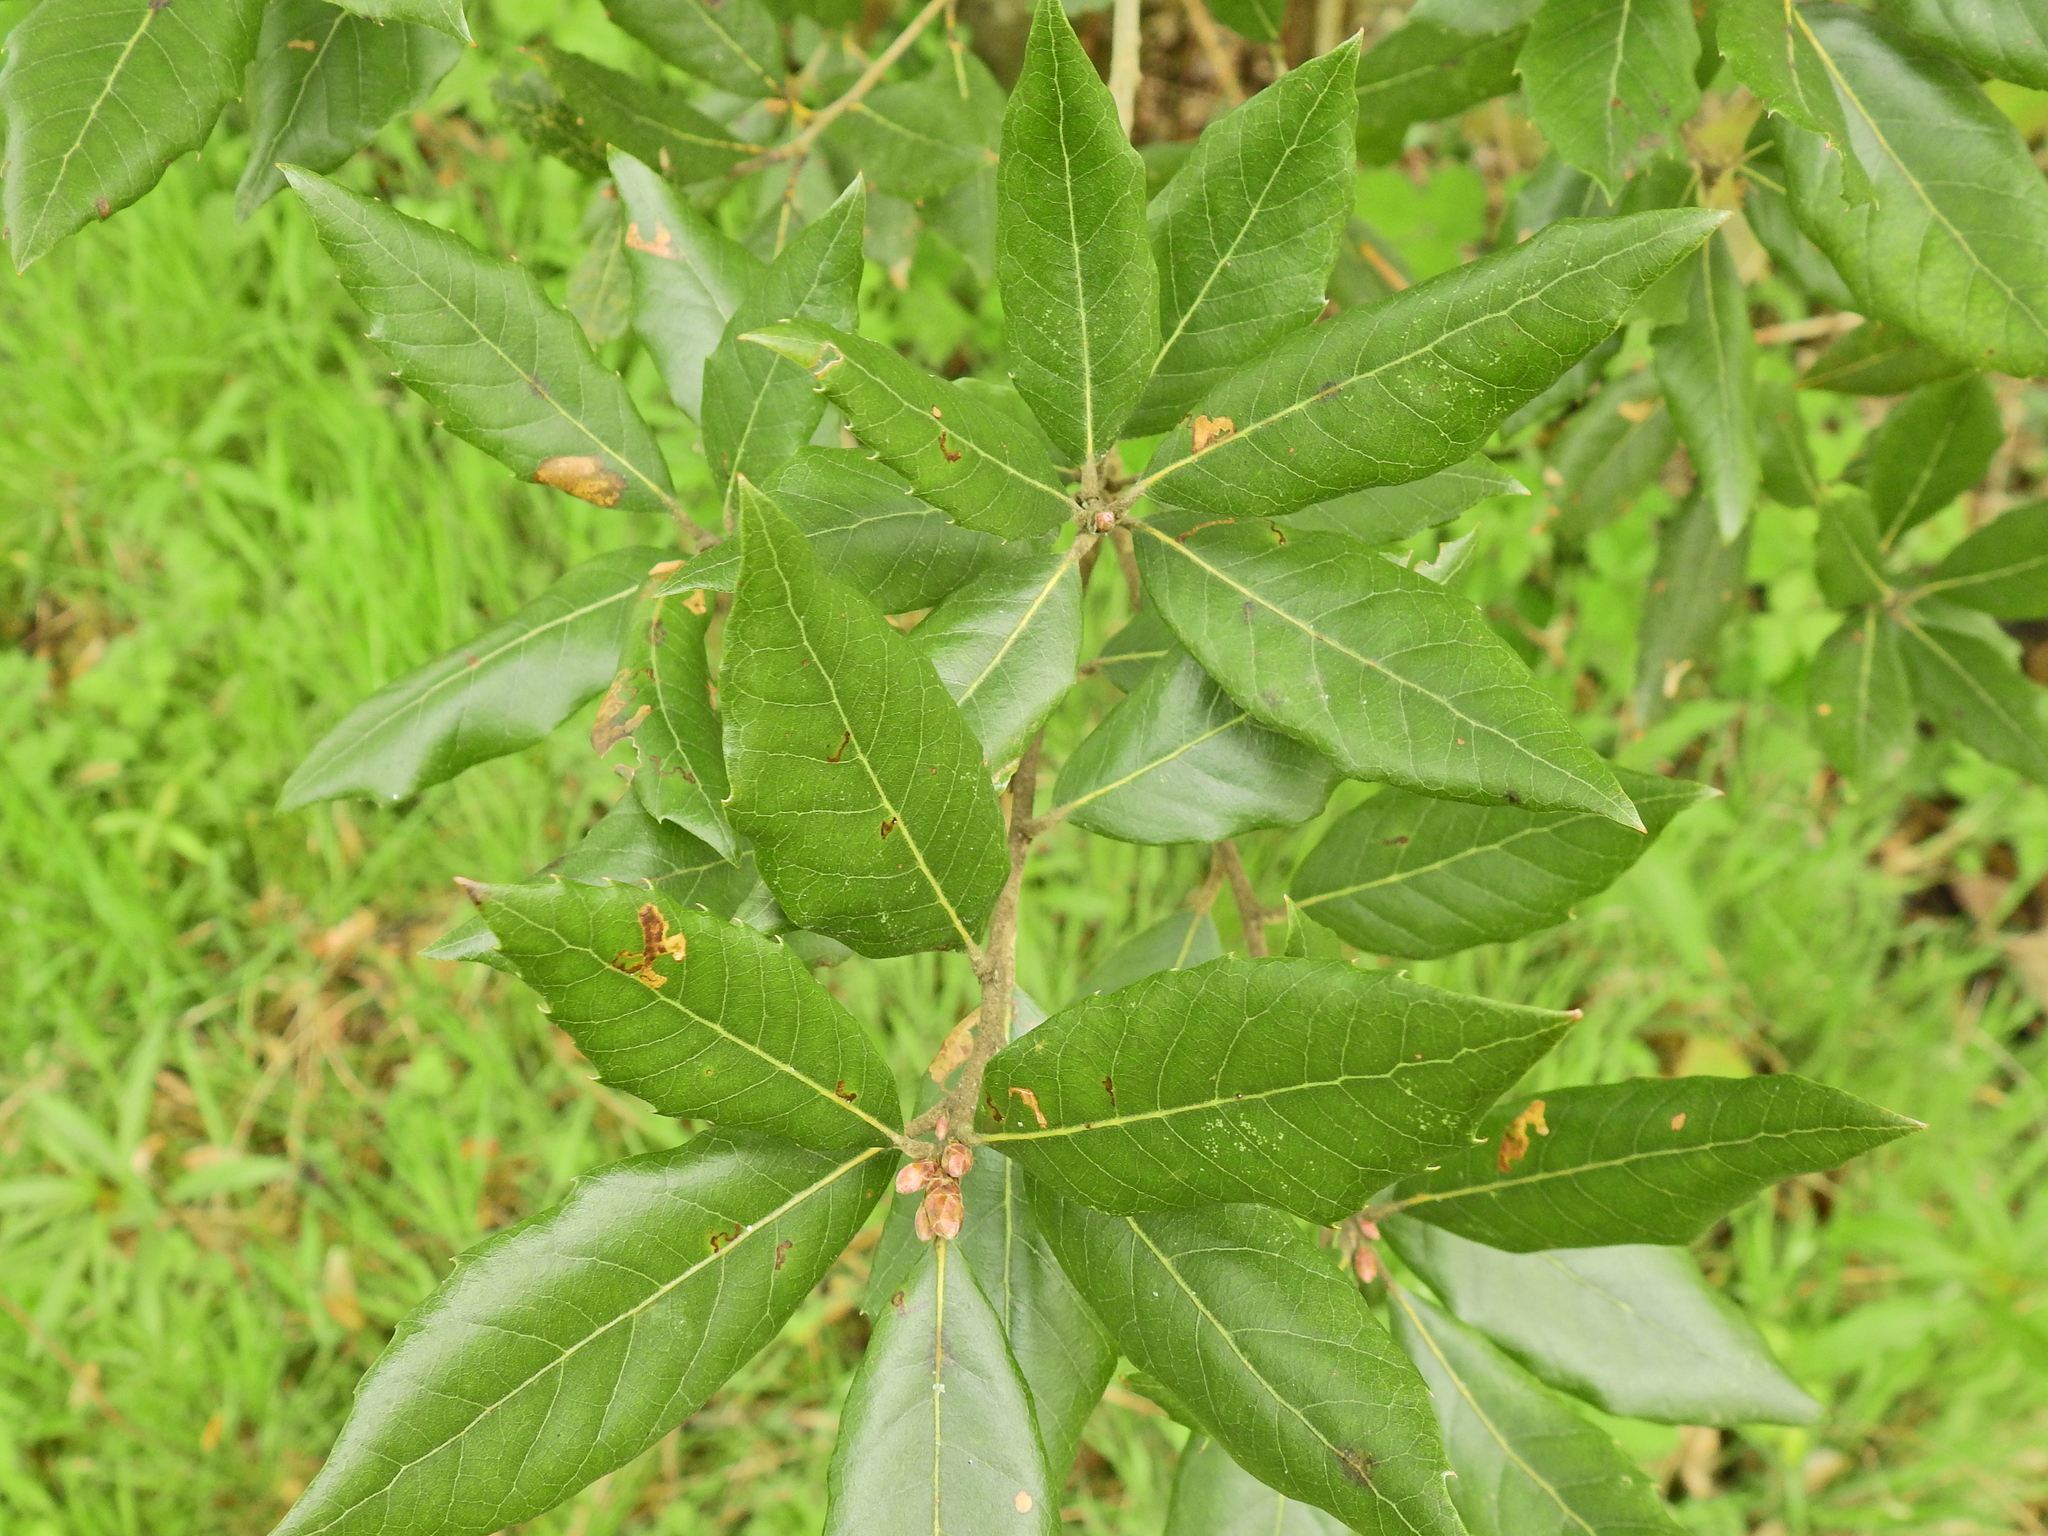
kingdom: Plantae
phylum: Tracheophyta
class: Magnoliopsida
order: Fagales
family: Fagaceae
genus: Quercus
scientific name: Quercus ilex
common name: Evergreen oak
